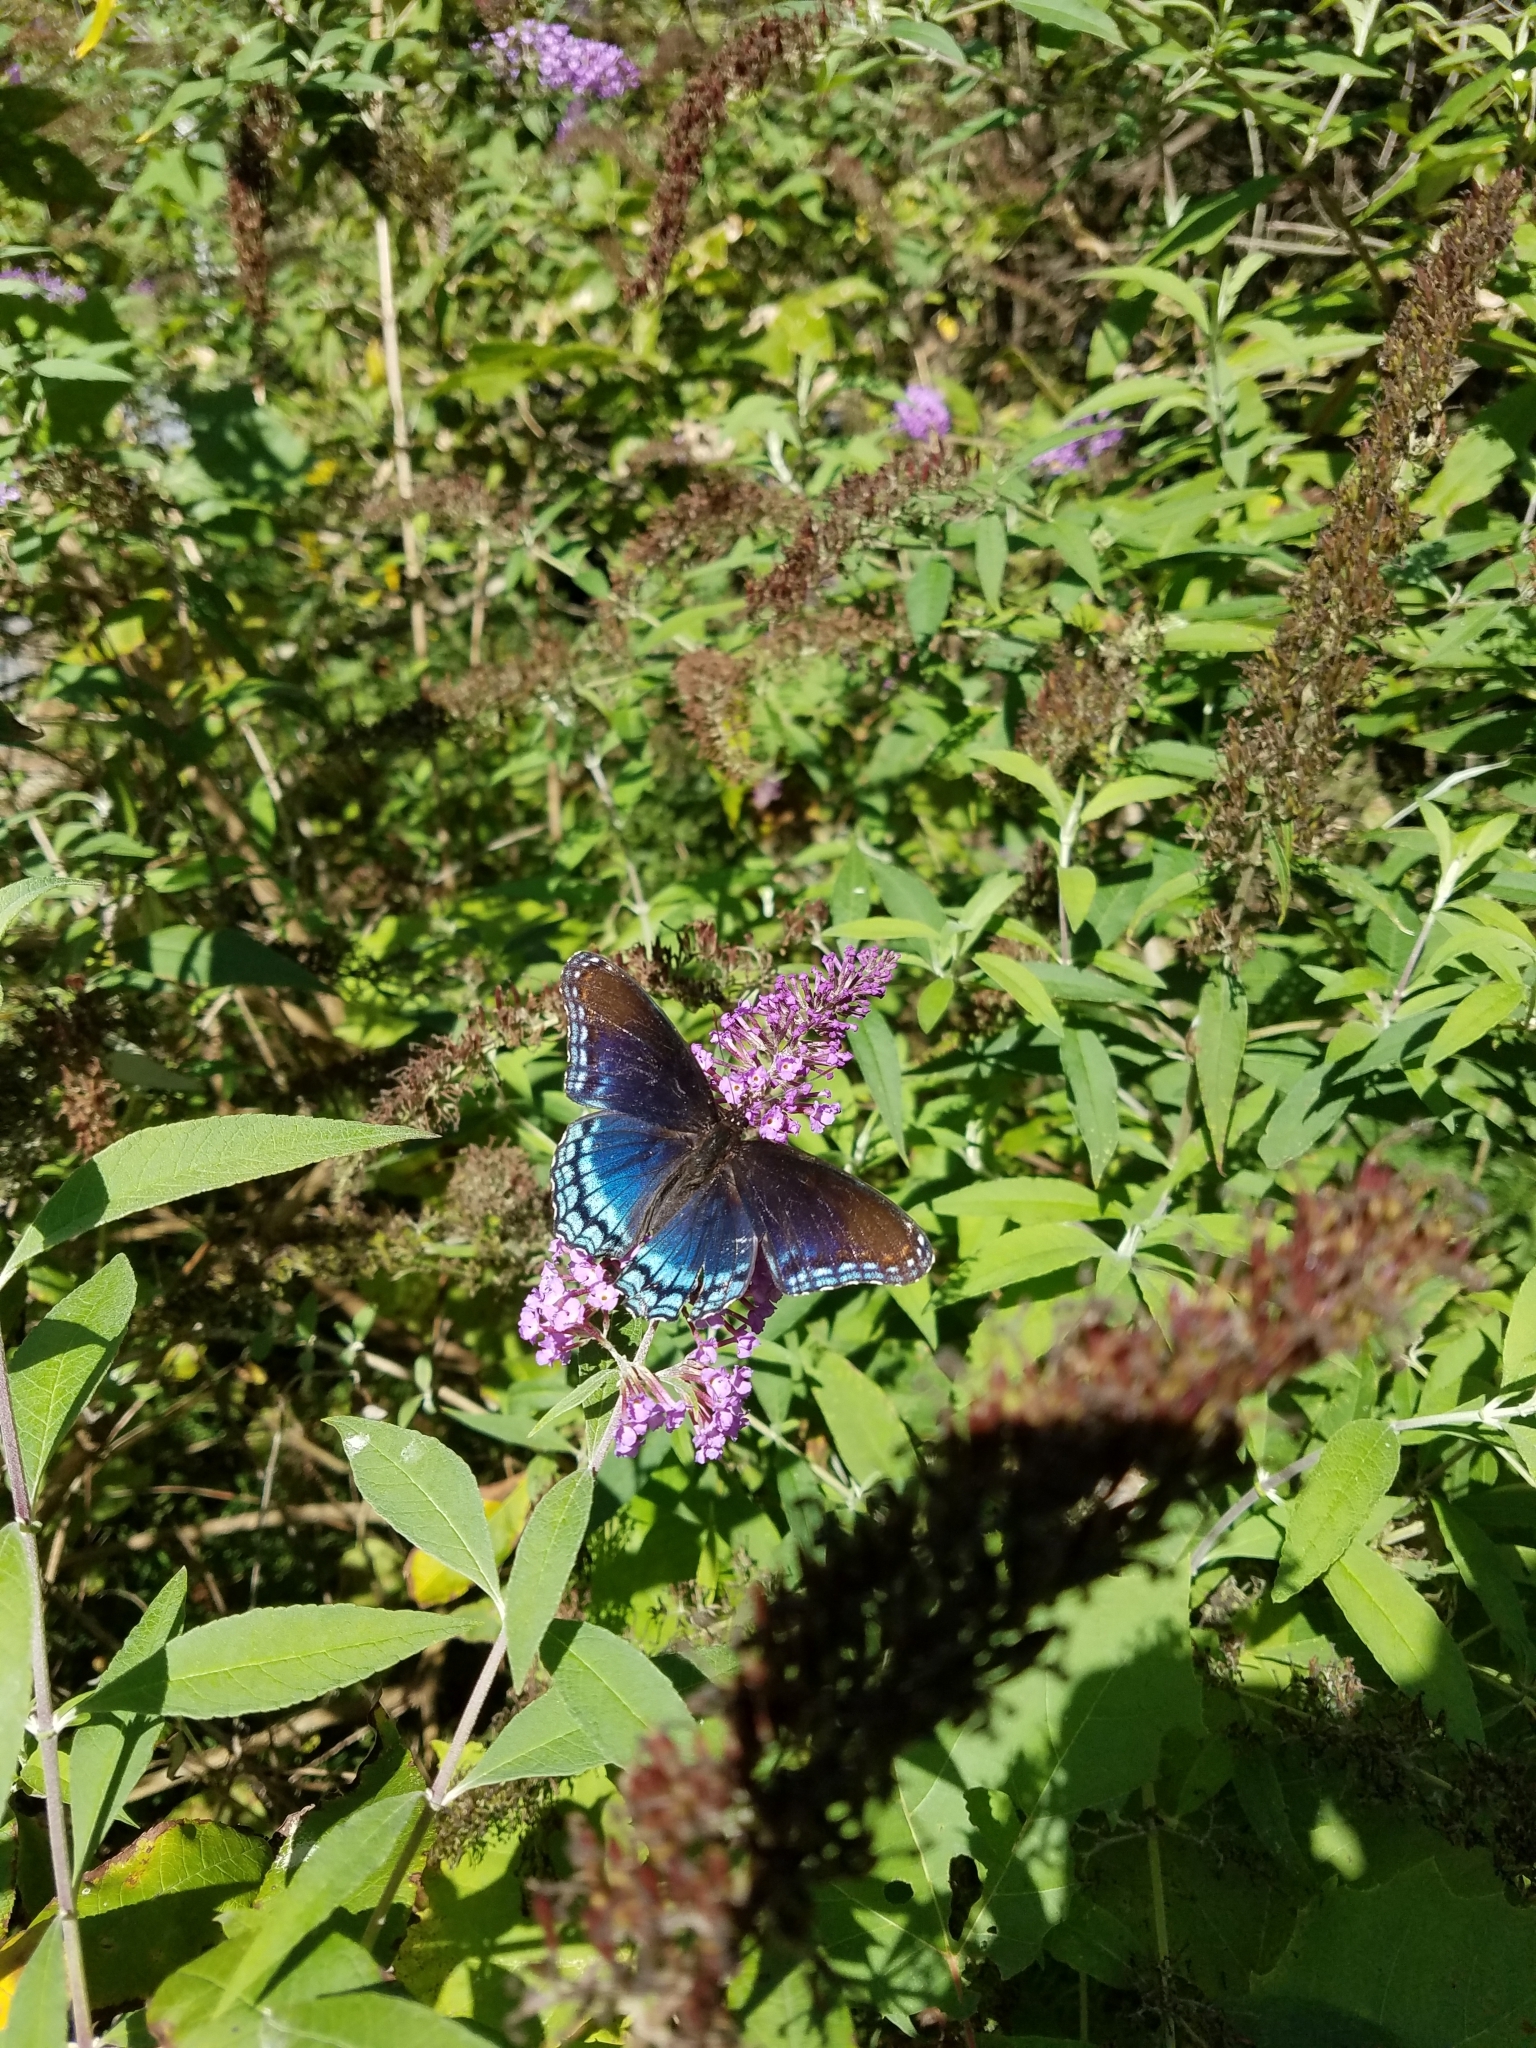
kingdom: Animalia
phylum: Arthropoda
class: Insecta
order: Lepidoptera
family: Nymphalidae
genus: Limenitis
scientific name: Limenitis astyanax
